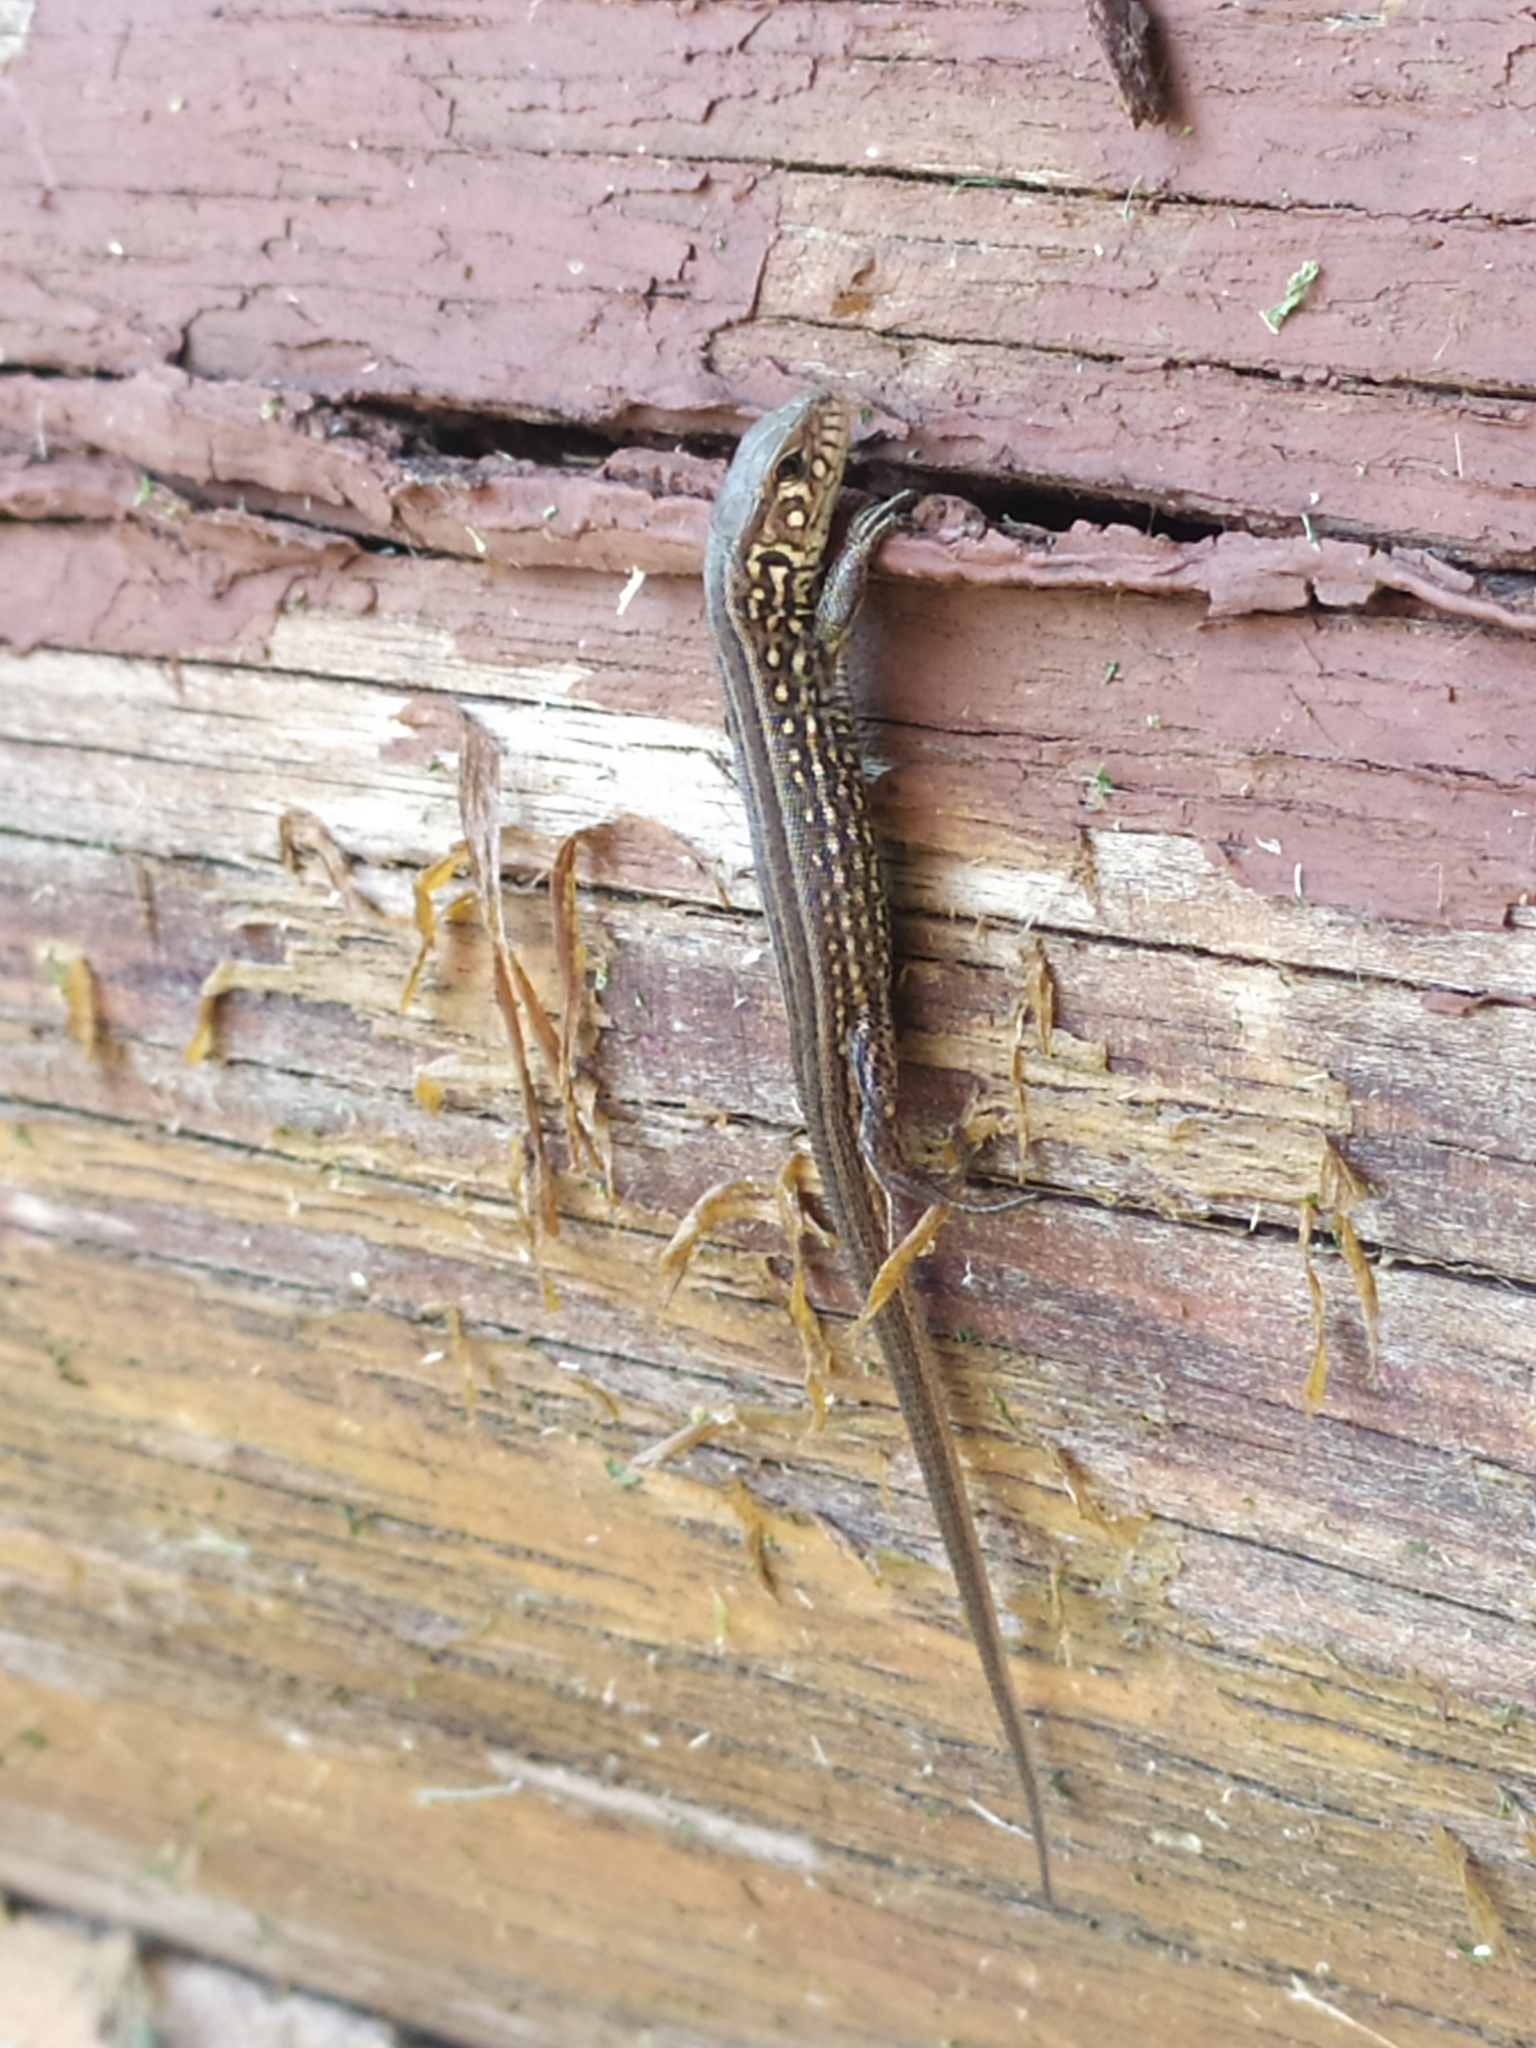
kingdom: Animalia
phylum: Chordata
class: Squamata
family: Lacertidae
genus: Lacerta
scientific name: Lacerta agilis
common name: Sand lizard
